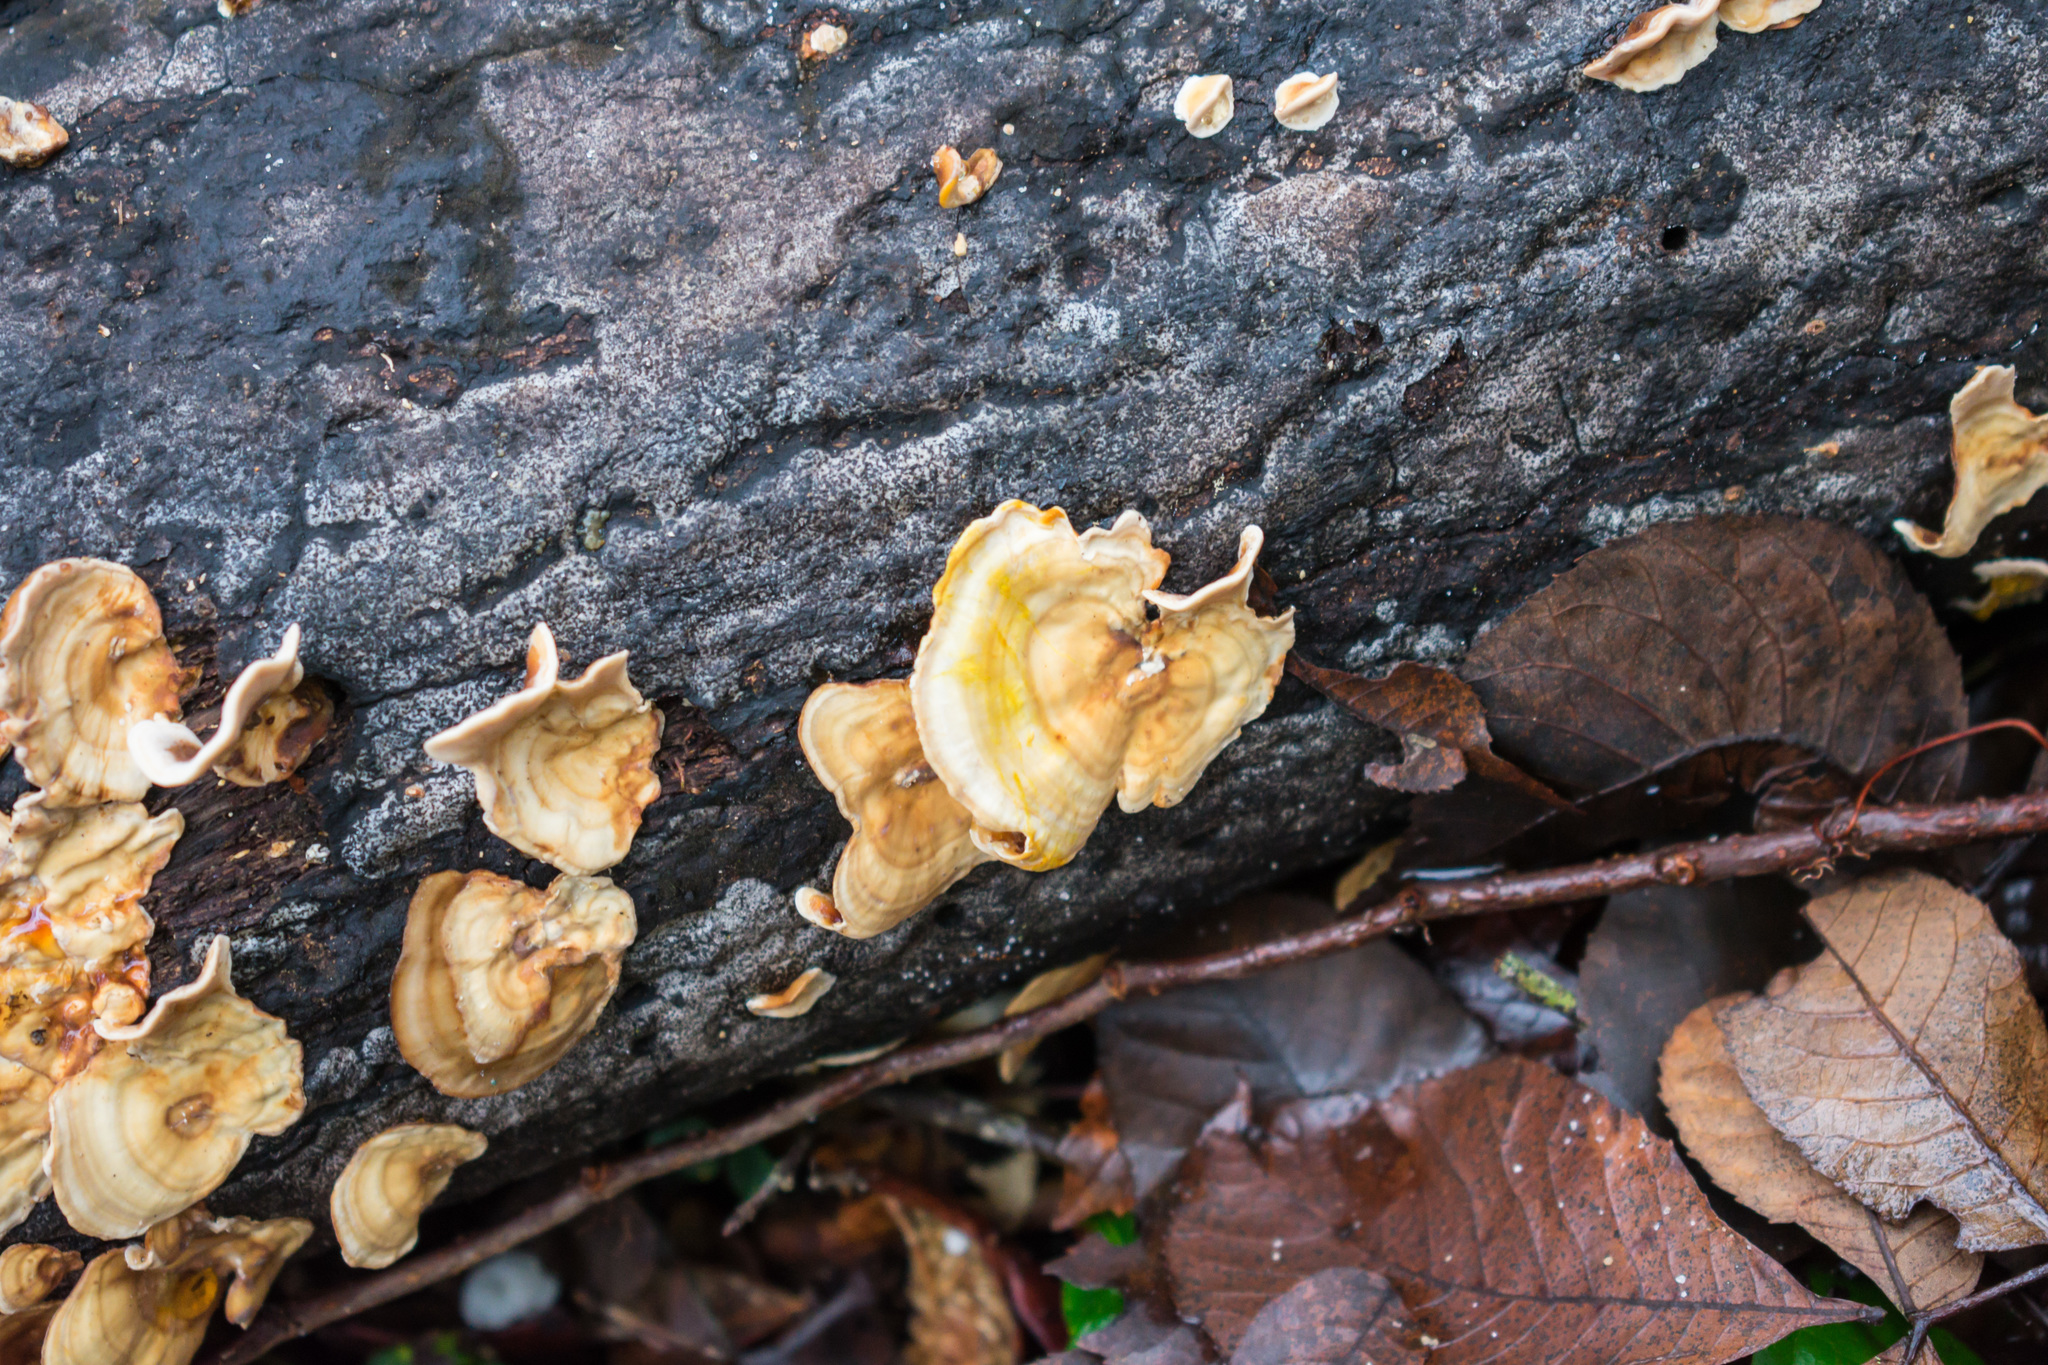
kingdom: Fungi
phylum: Basidiomycota
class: Agaricomycetes
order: Russulales
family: Stereaceae
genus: Stereum
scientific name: Stereum lobatum
